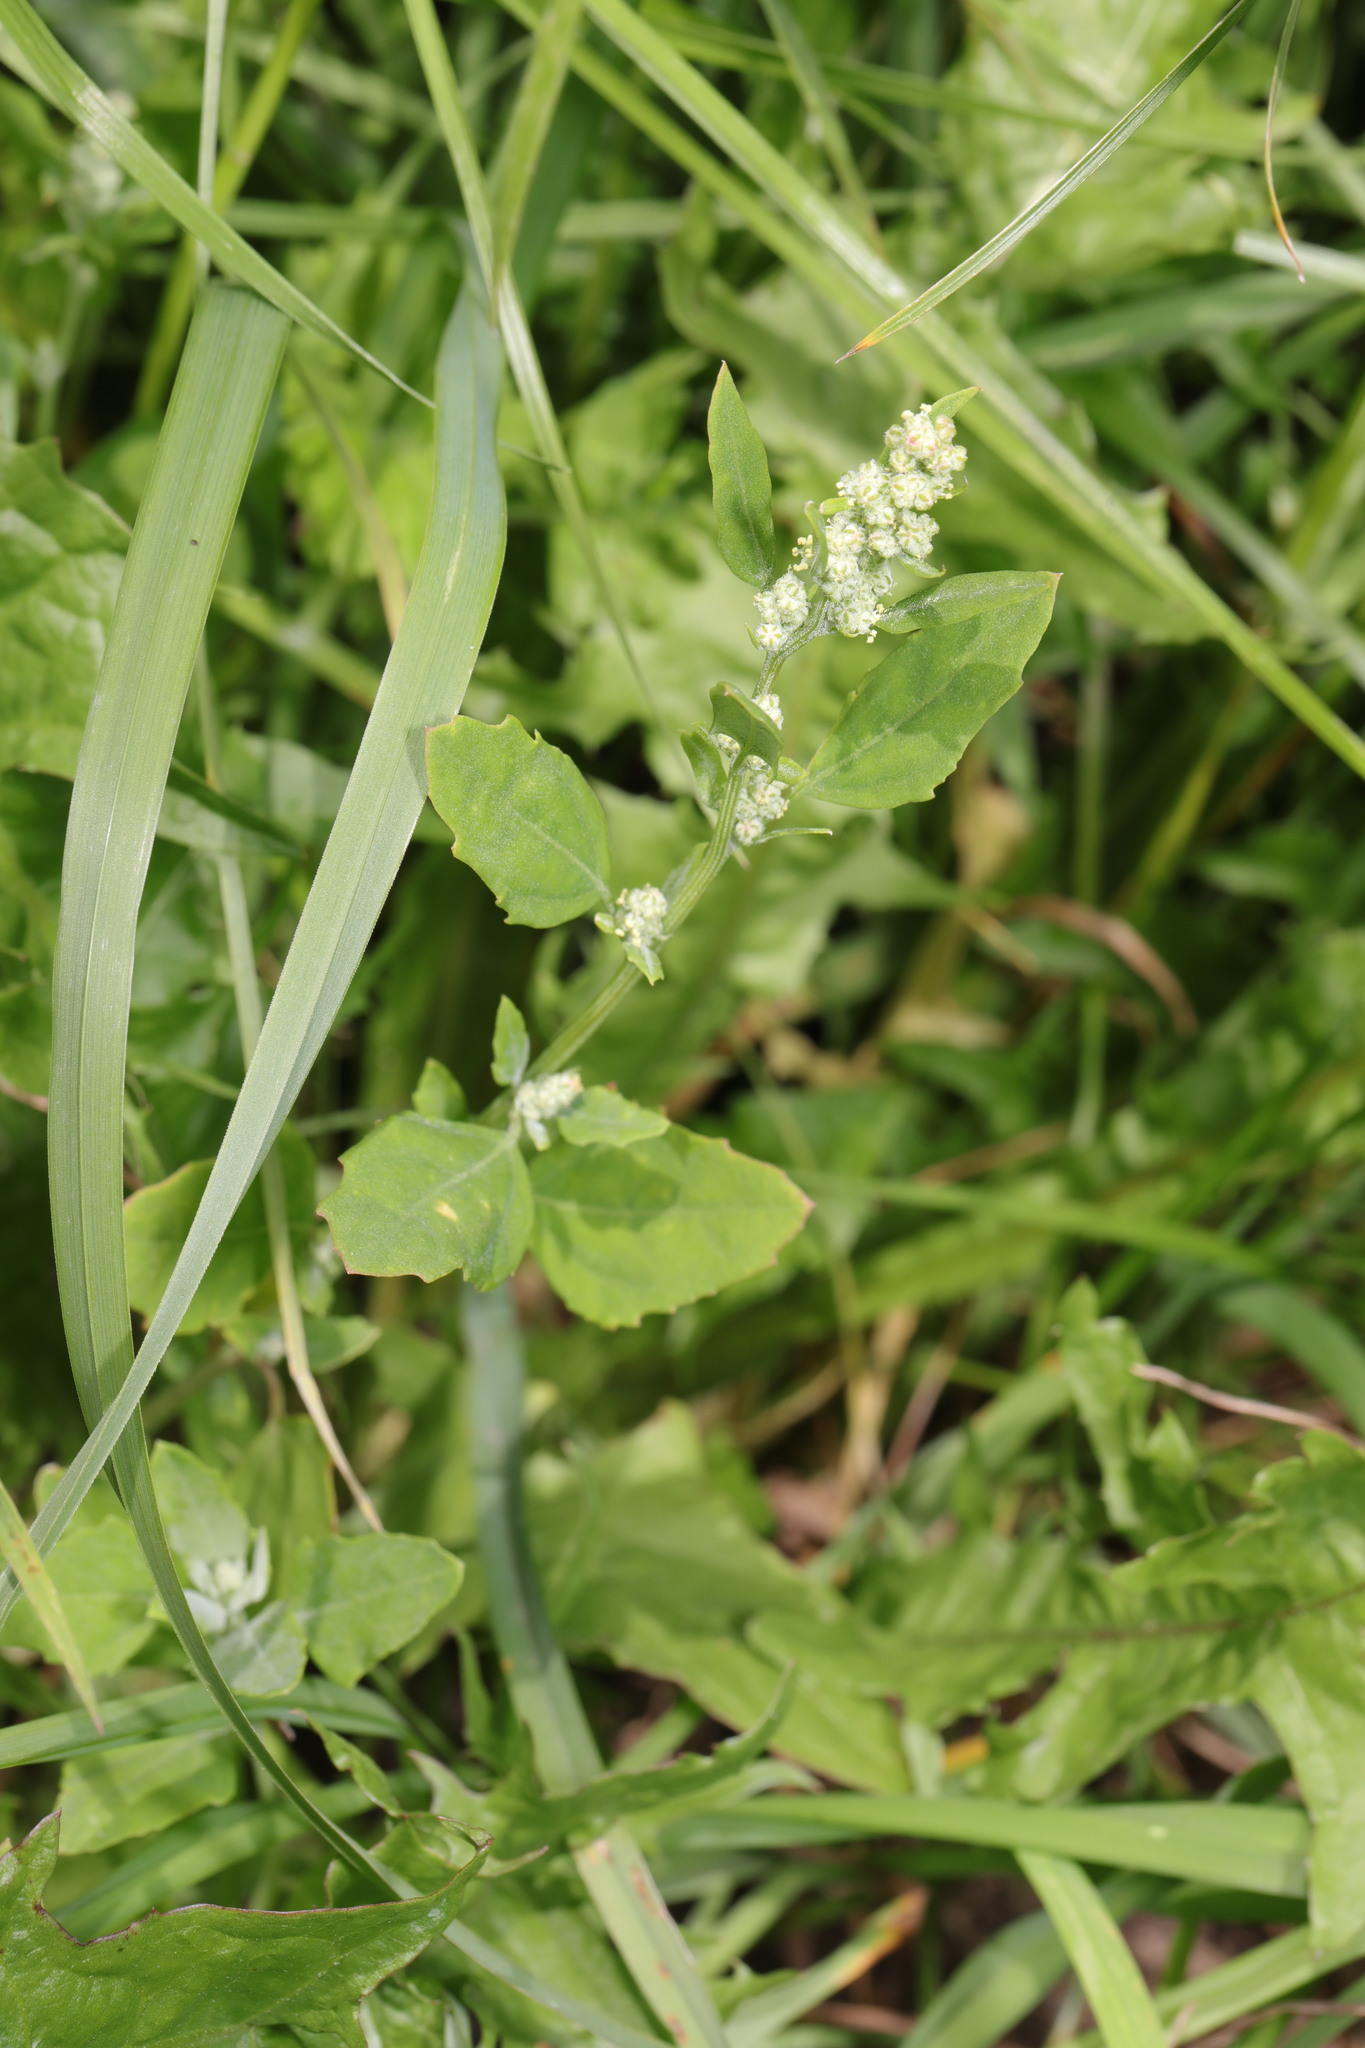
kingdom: Plantae
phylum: Tracheophyta
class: Magnoliopsida
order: Caryophyllales
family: Amaranthaceae
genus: Chenopodium
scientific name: Chenopodium album
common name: Fat-hen
